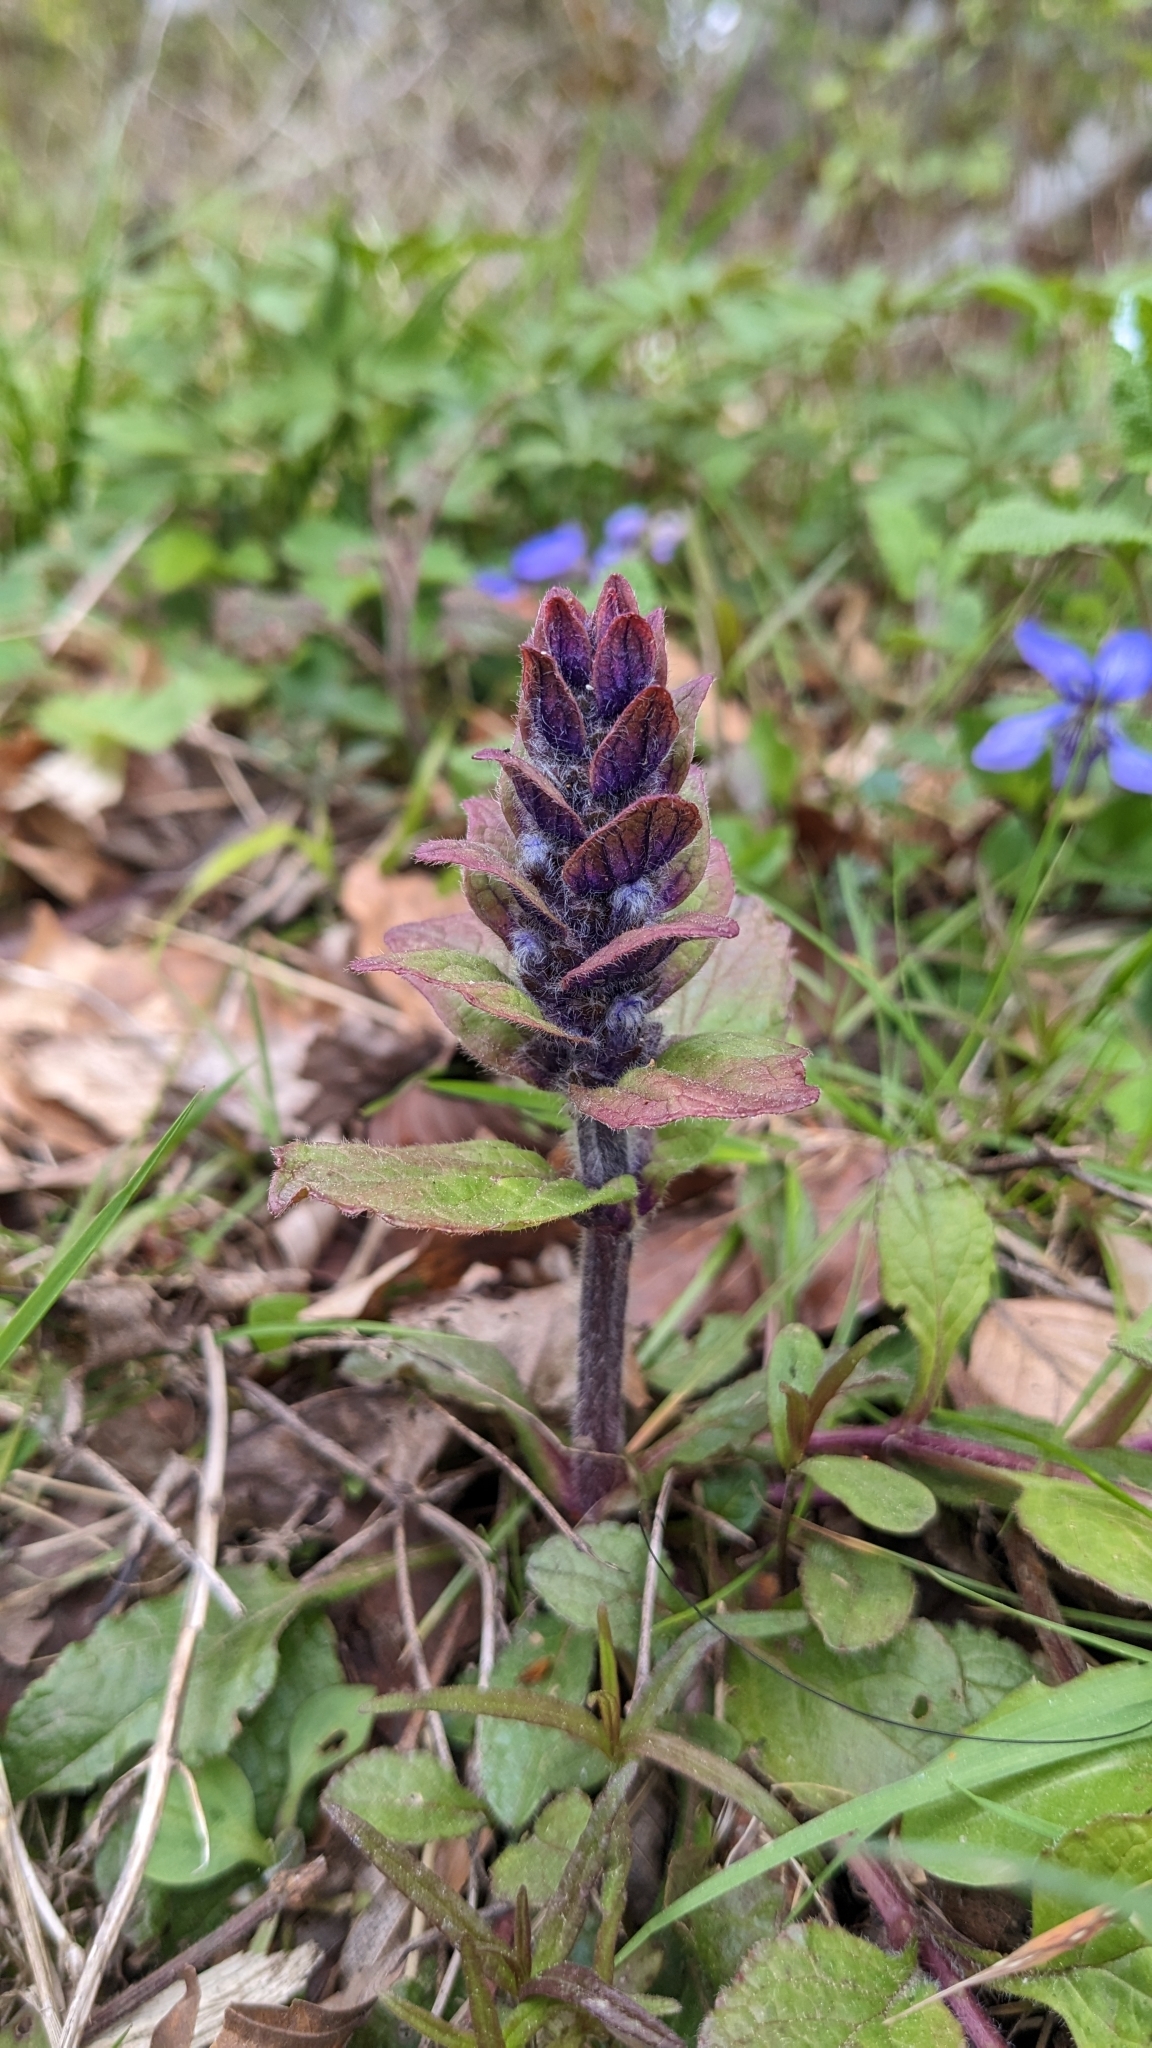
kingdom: Plantae
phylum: Tracheophyta
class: Magnoliopsida
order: Lamiales
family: Lamiaceae
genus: Ajuga
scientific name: Ajuga reptans
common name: Bugle
